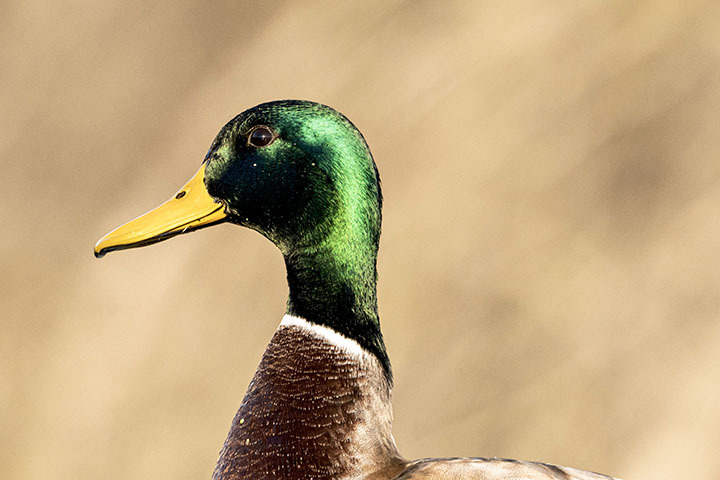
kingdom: Animalia
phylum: Chordata
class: Aves
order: Anseriformes
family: Anatidae
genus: Anas
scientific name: Anas platyrhynchos
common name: Mallard
